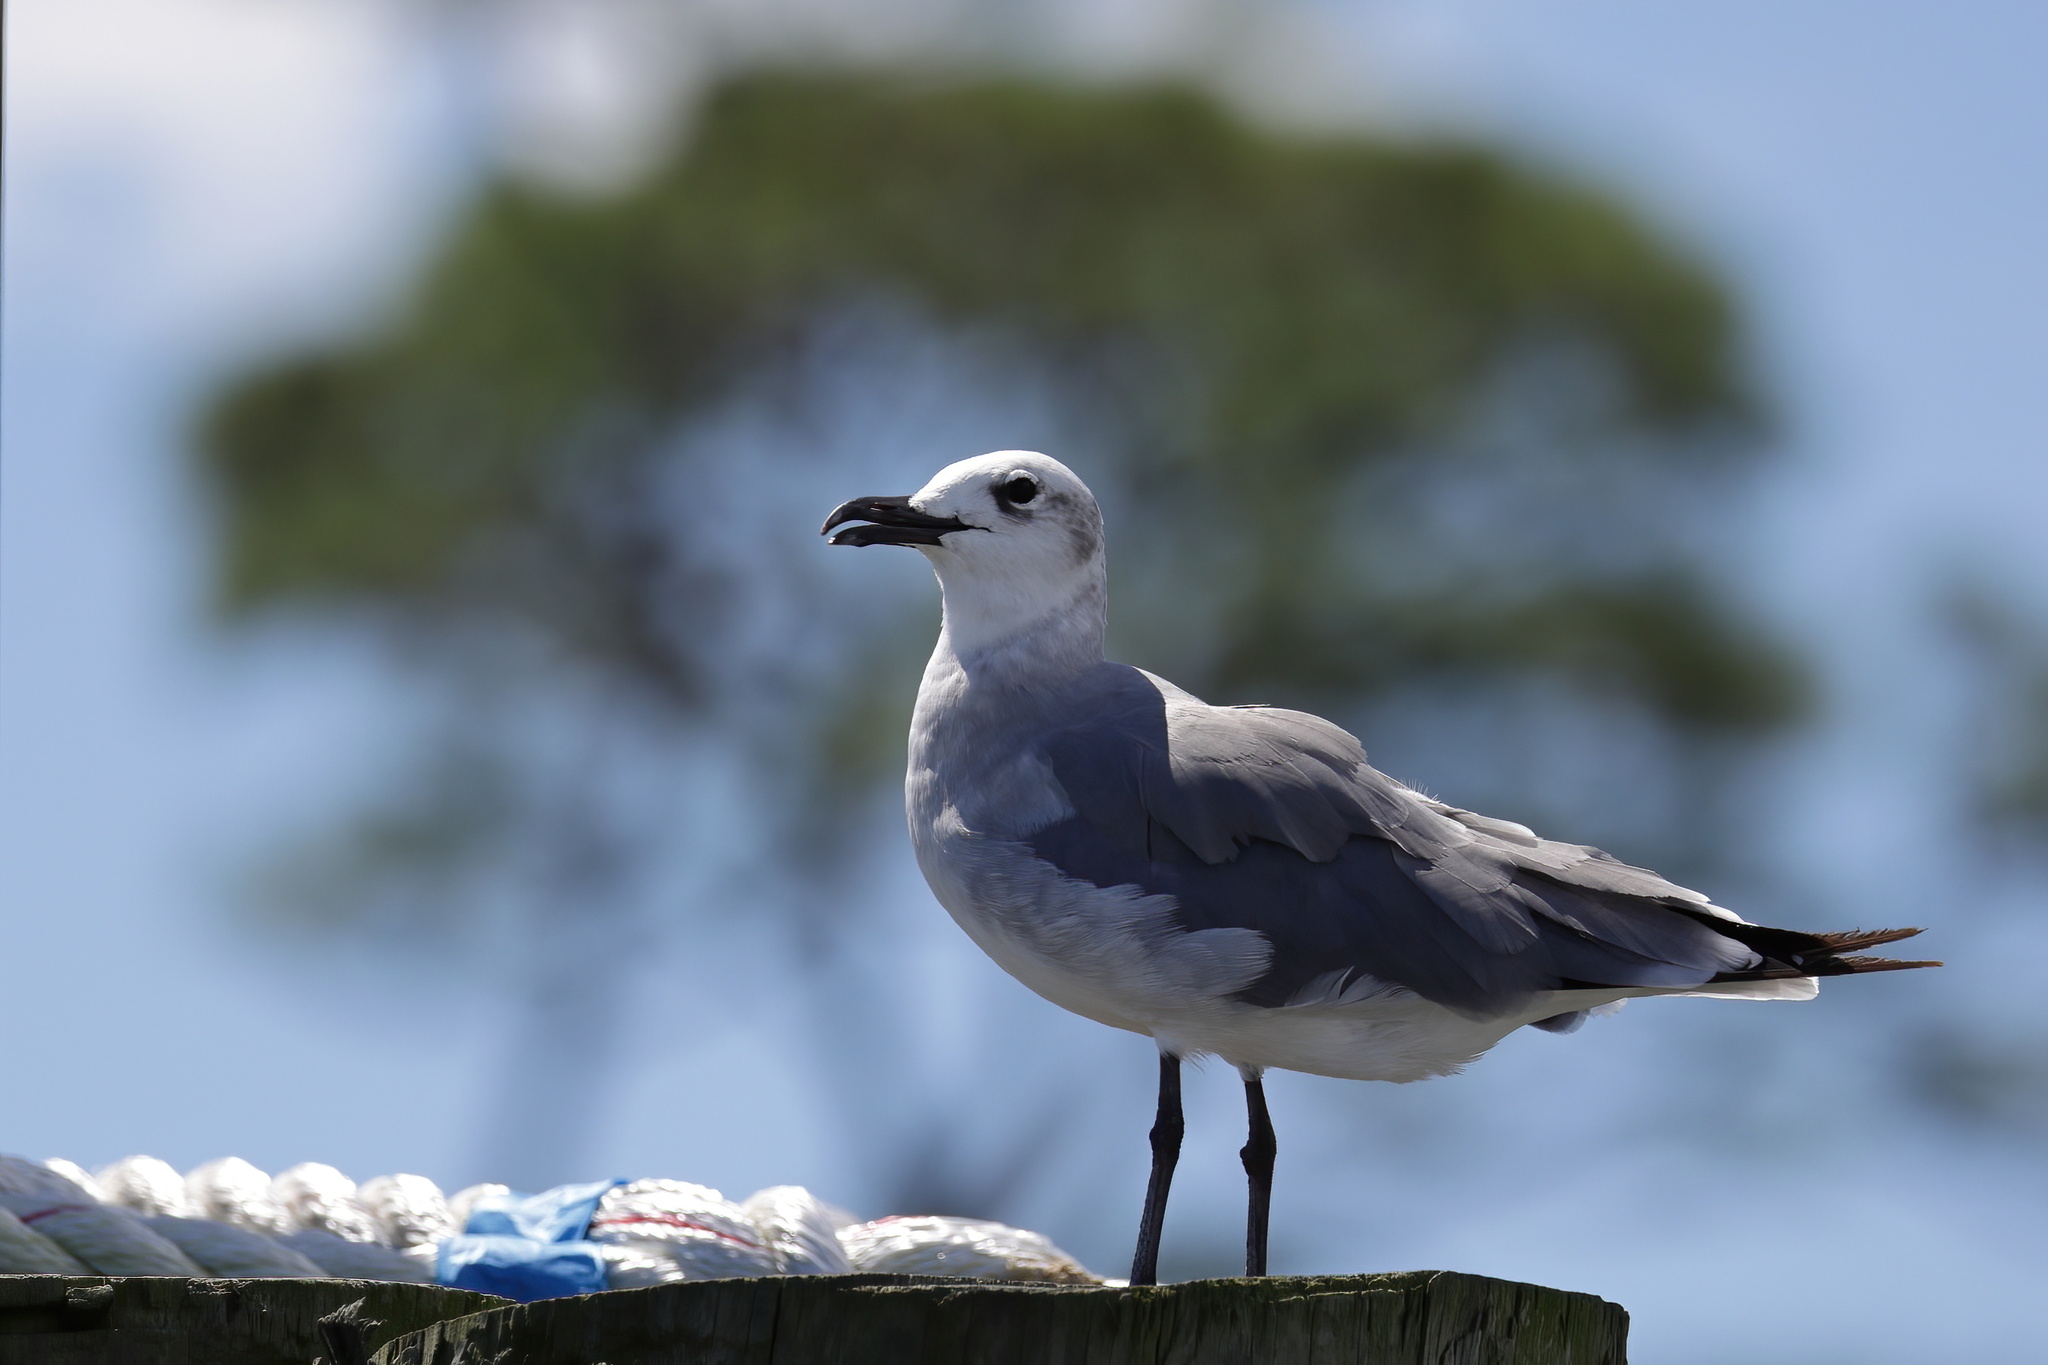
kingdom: Animalia
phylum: Chordata
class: Aves
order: Charadriiformes
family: Laridae
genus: Leucophaeus
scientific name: Leucophaeus atricilla
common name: Laughing gull
